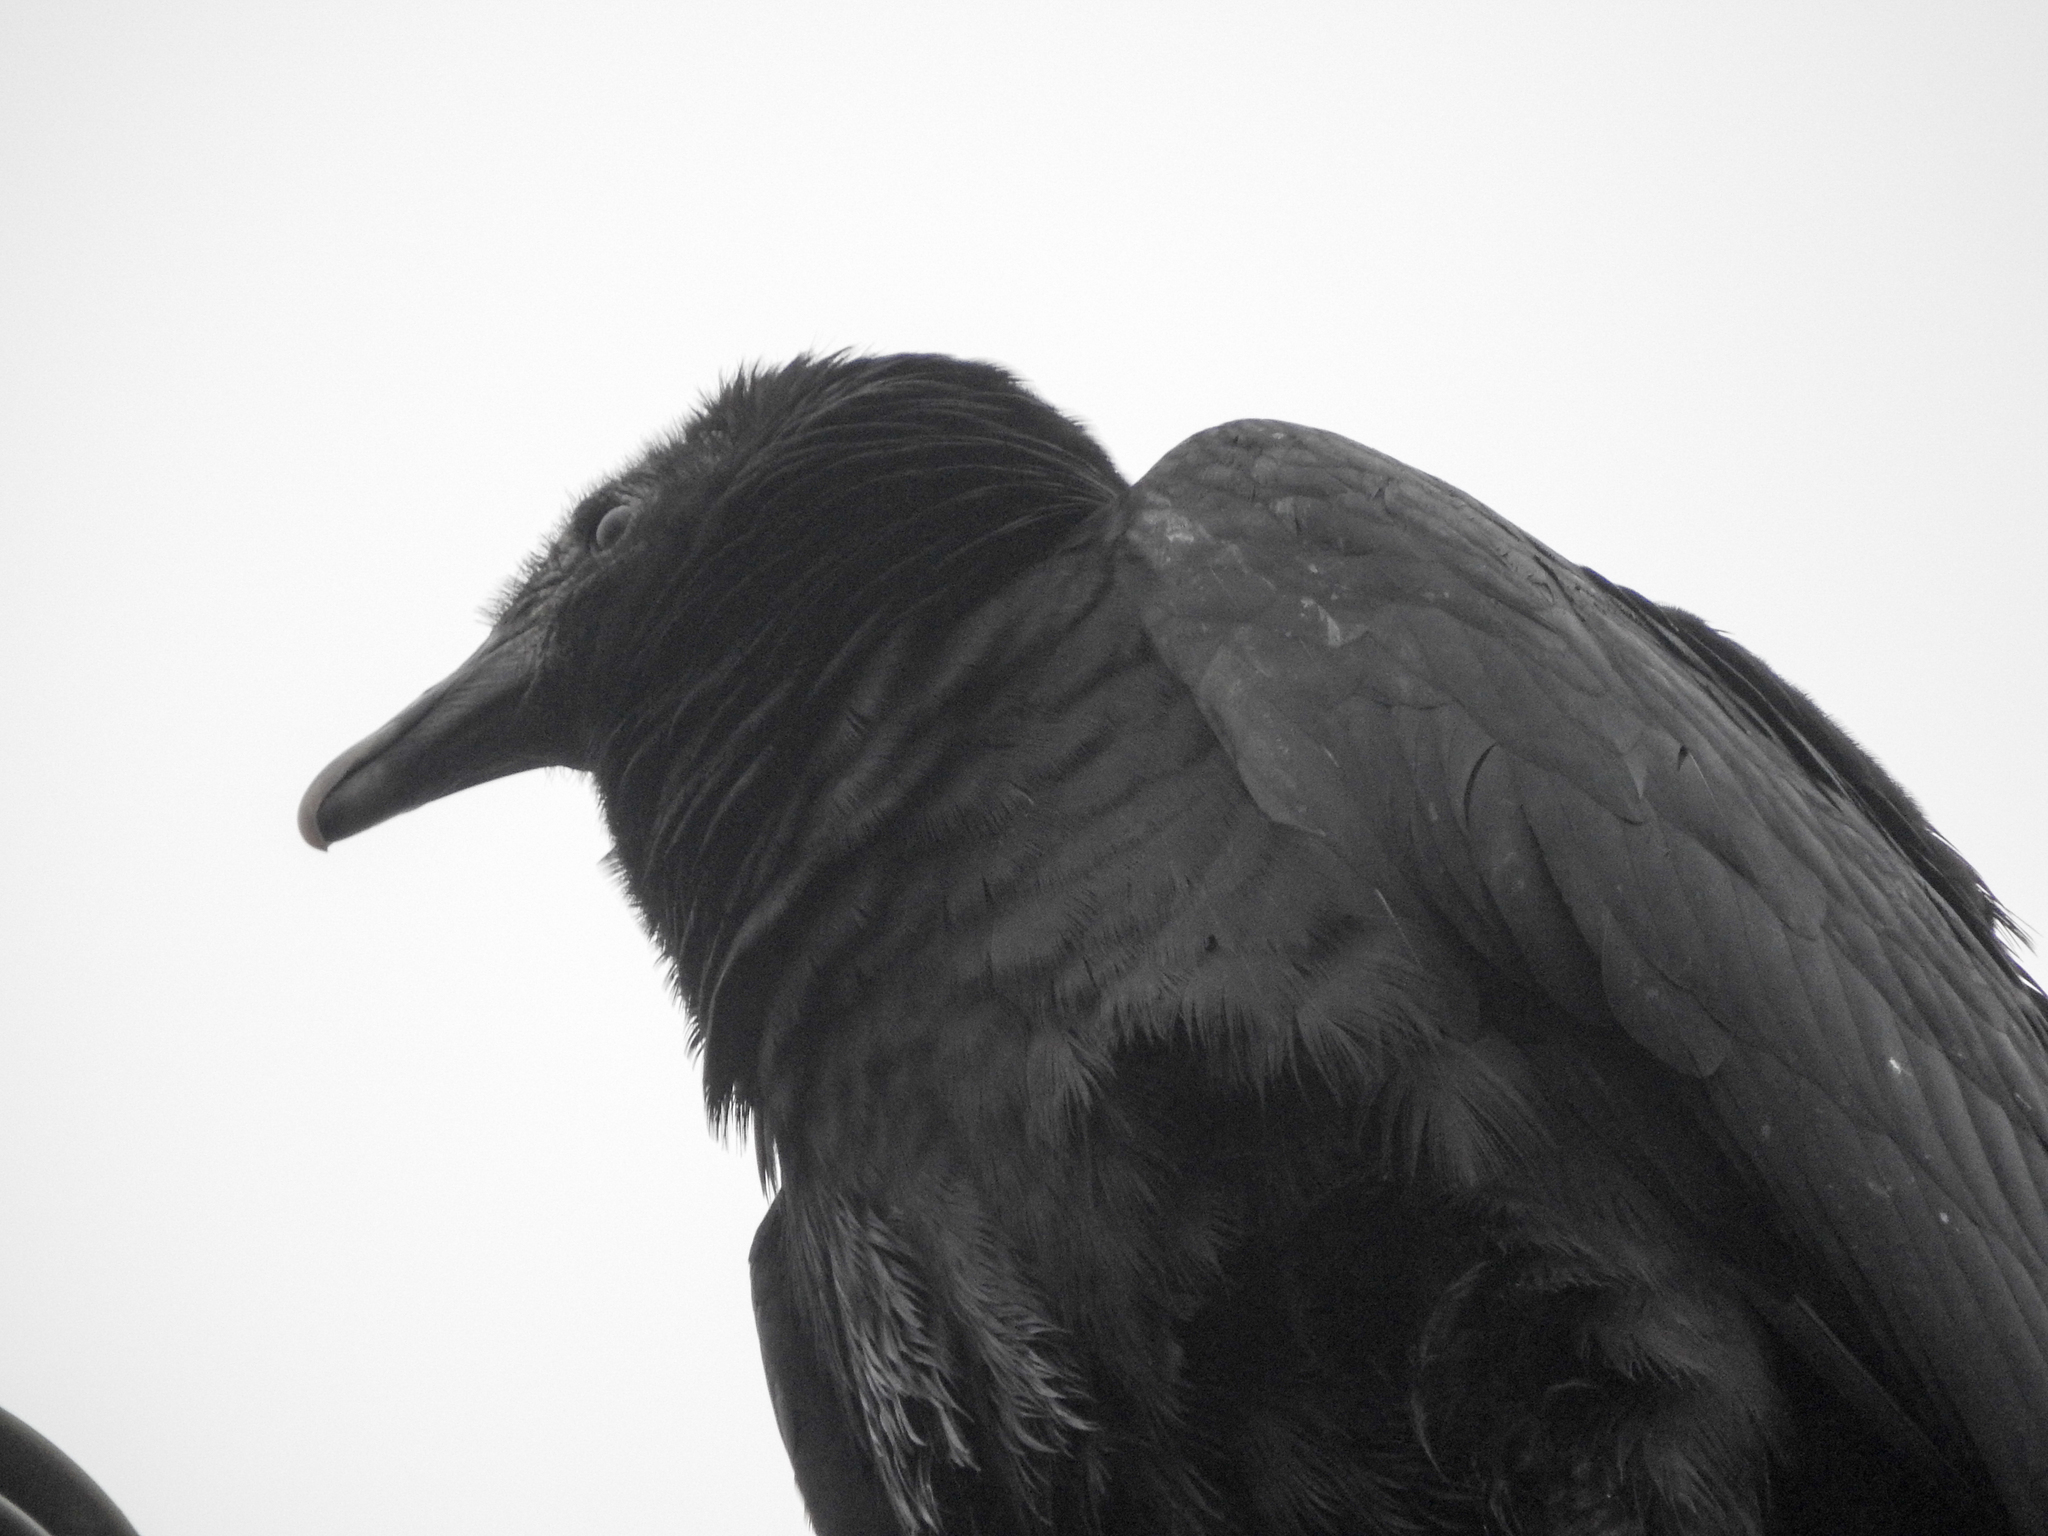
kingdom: Animalia
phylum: Chordata
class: Aves
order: Accipitriformes
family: Cathartidae
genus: Coragyps
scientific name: Coragyps atratus
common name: Black vulture
